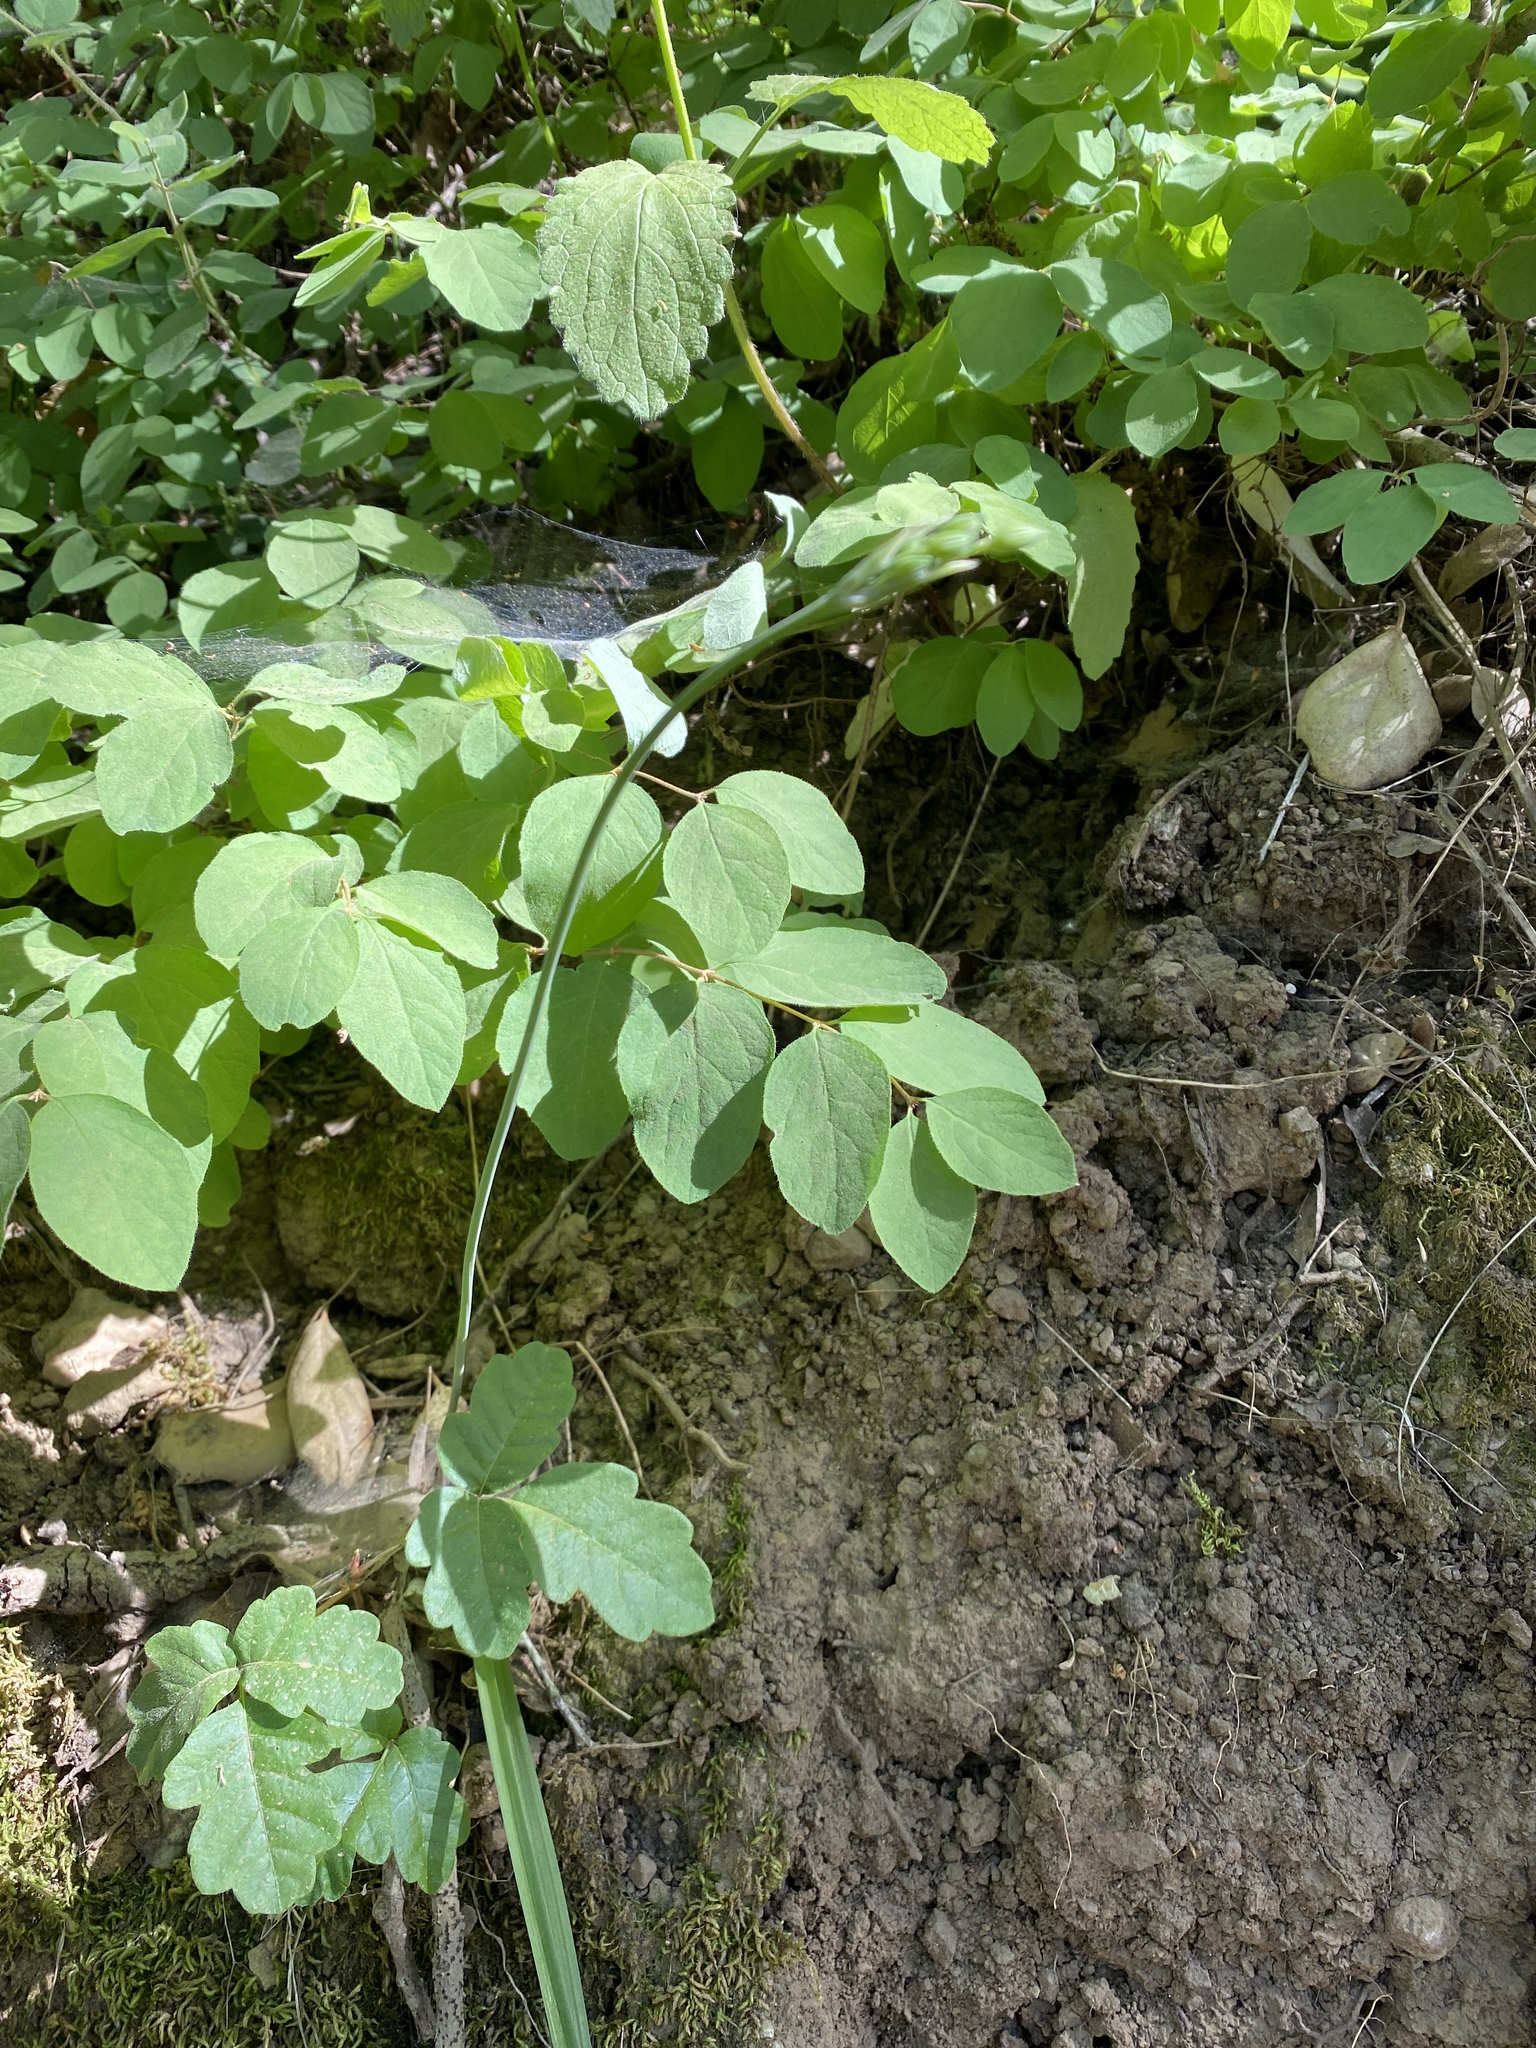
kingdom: Plantae
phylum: Tracheophyta
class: Liliopsida
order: Liliales
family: Liliaceae
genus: Calochortus
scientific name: Calochortus albus
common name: Fairy-lantern
